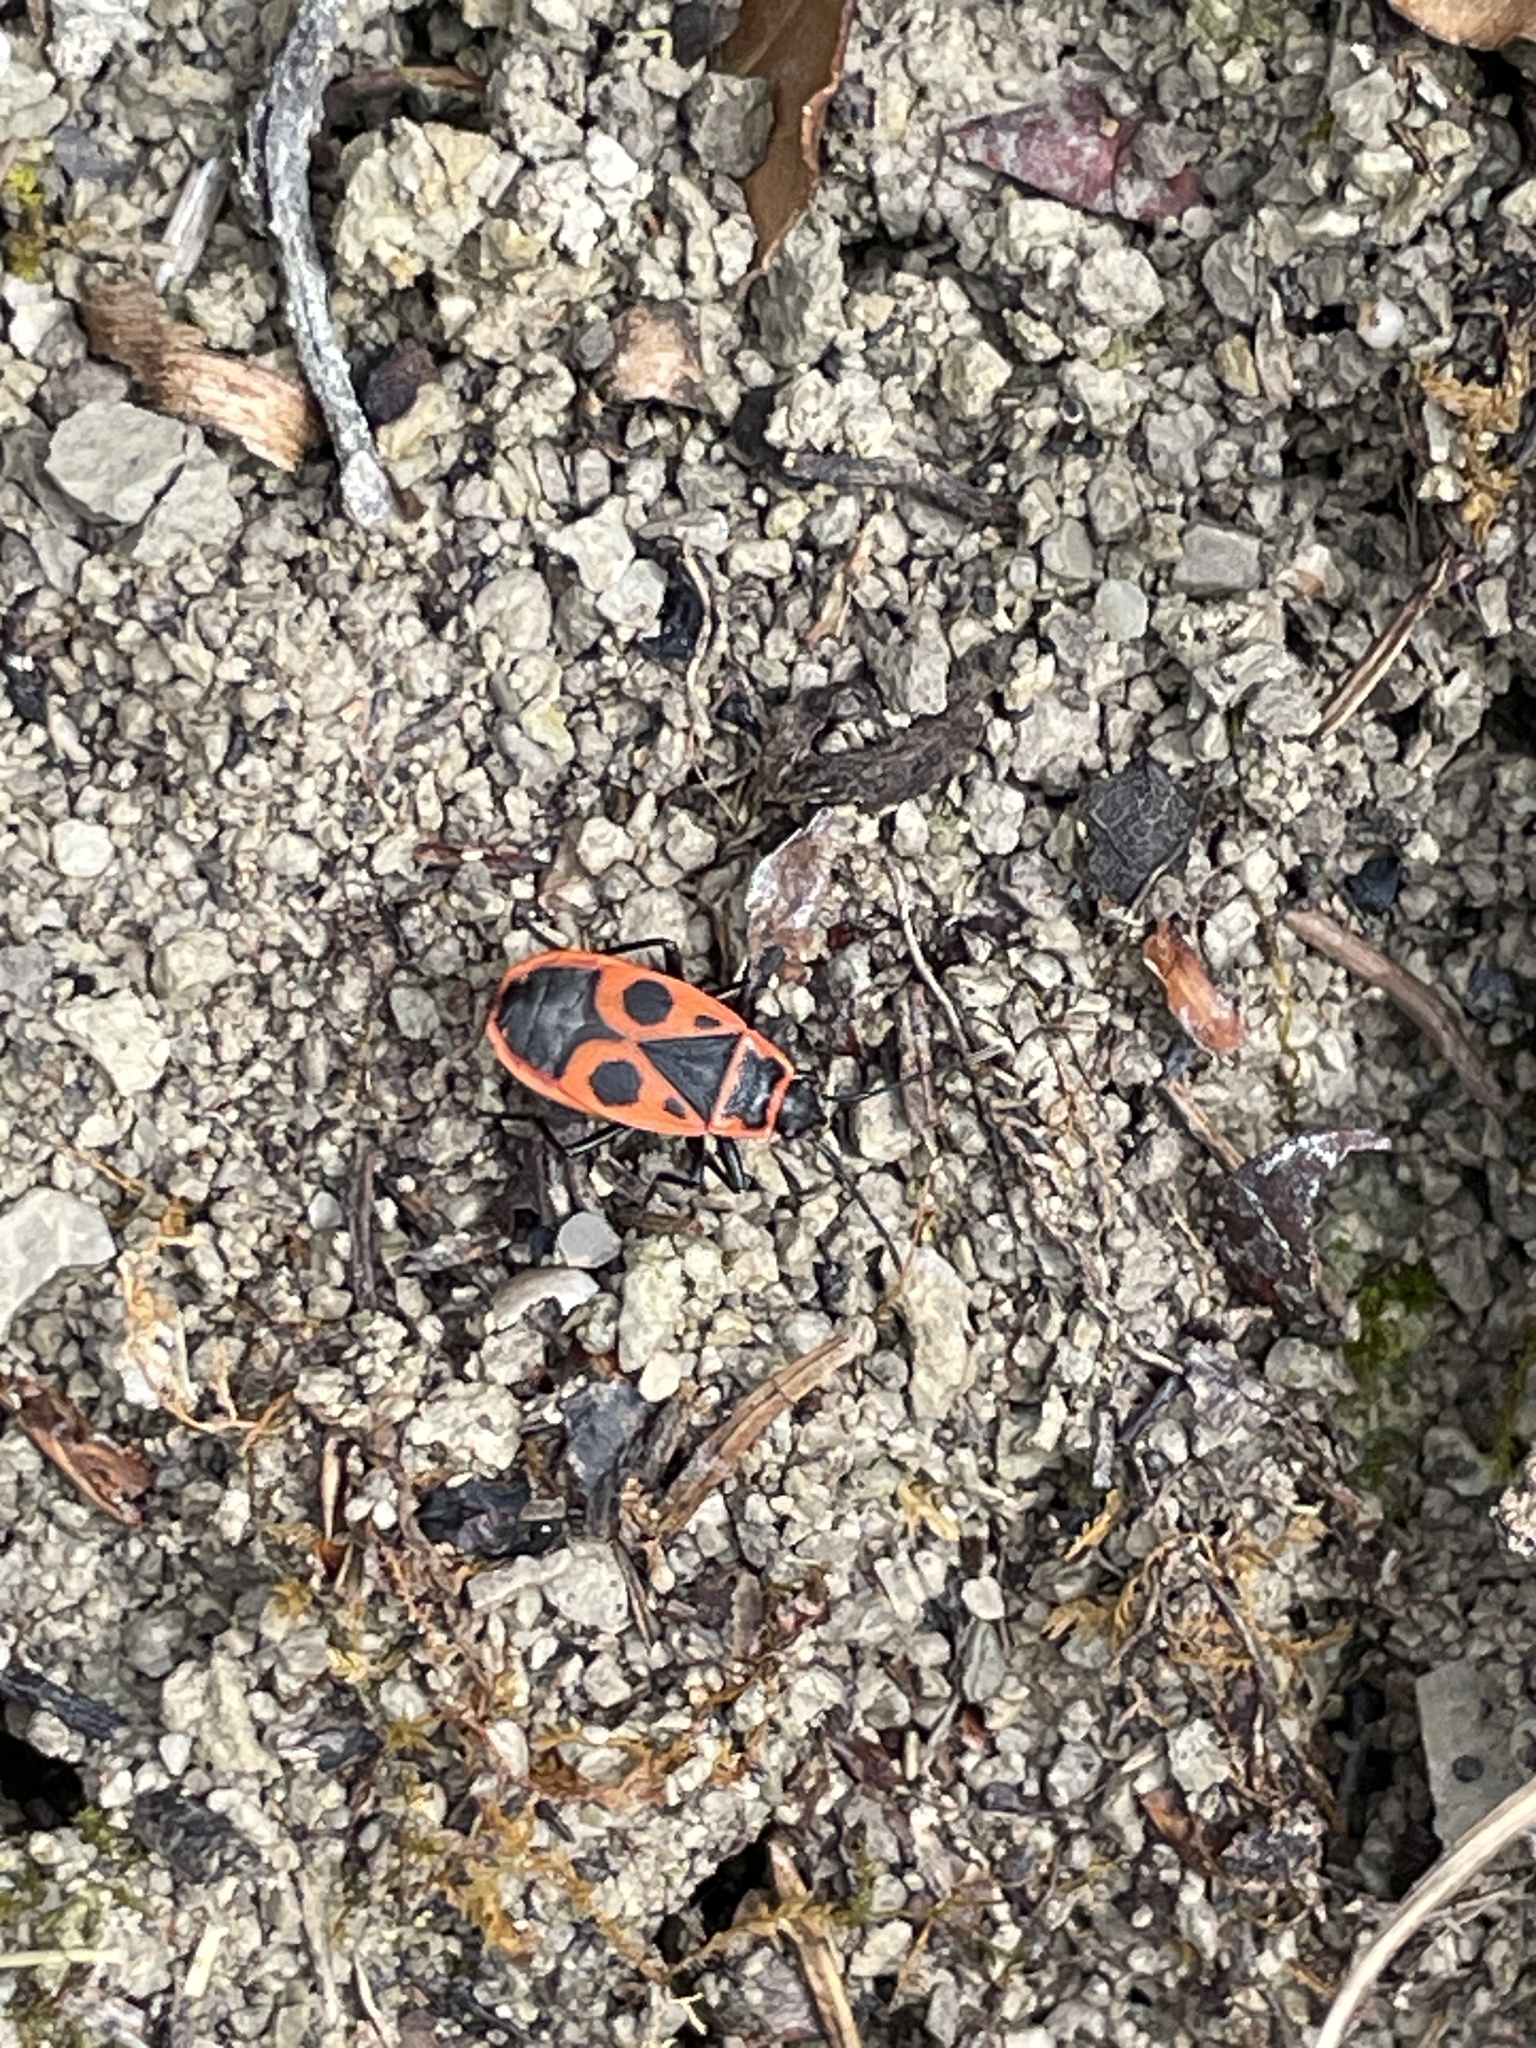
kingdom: Animalia
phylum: Arthropoda
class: Insecta
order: Hemiptera
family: Pyrrhocoridae
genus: Pyrrhocoris
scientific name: Pyrrhocoris apterus
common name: Firebug
